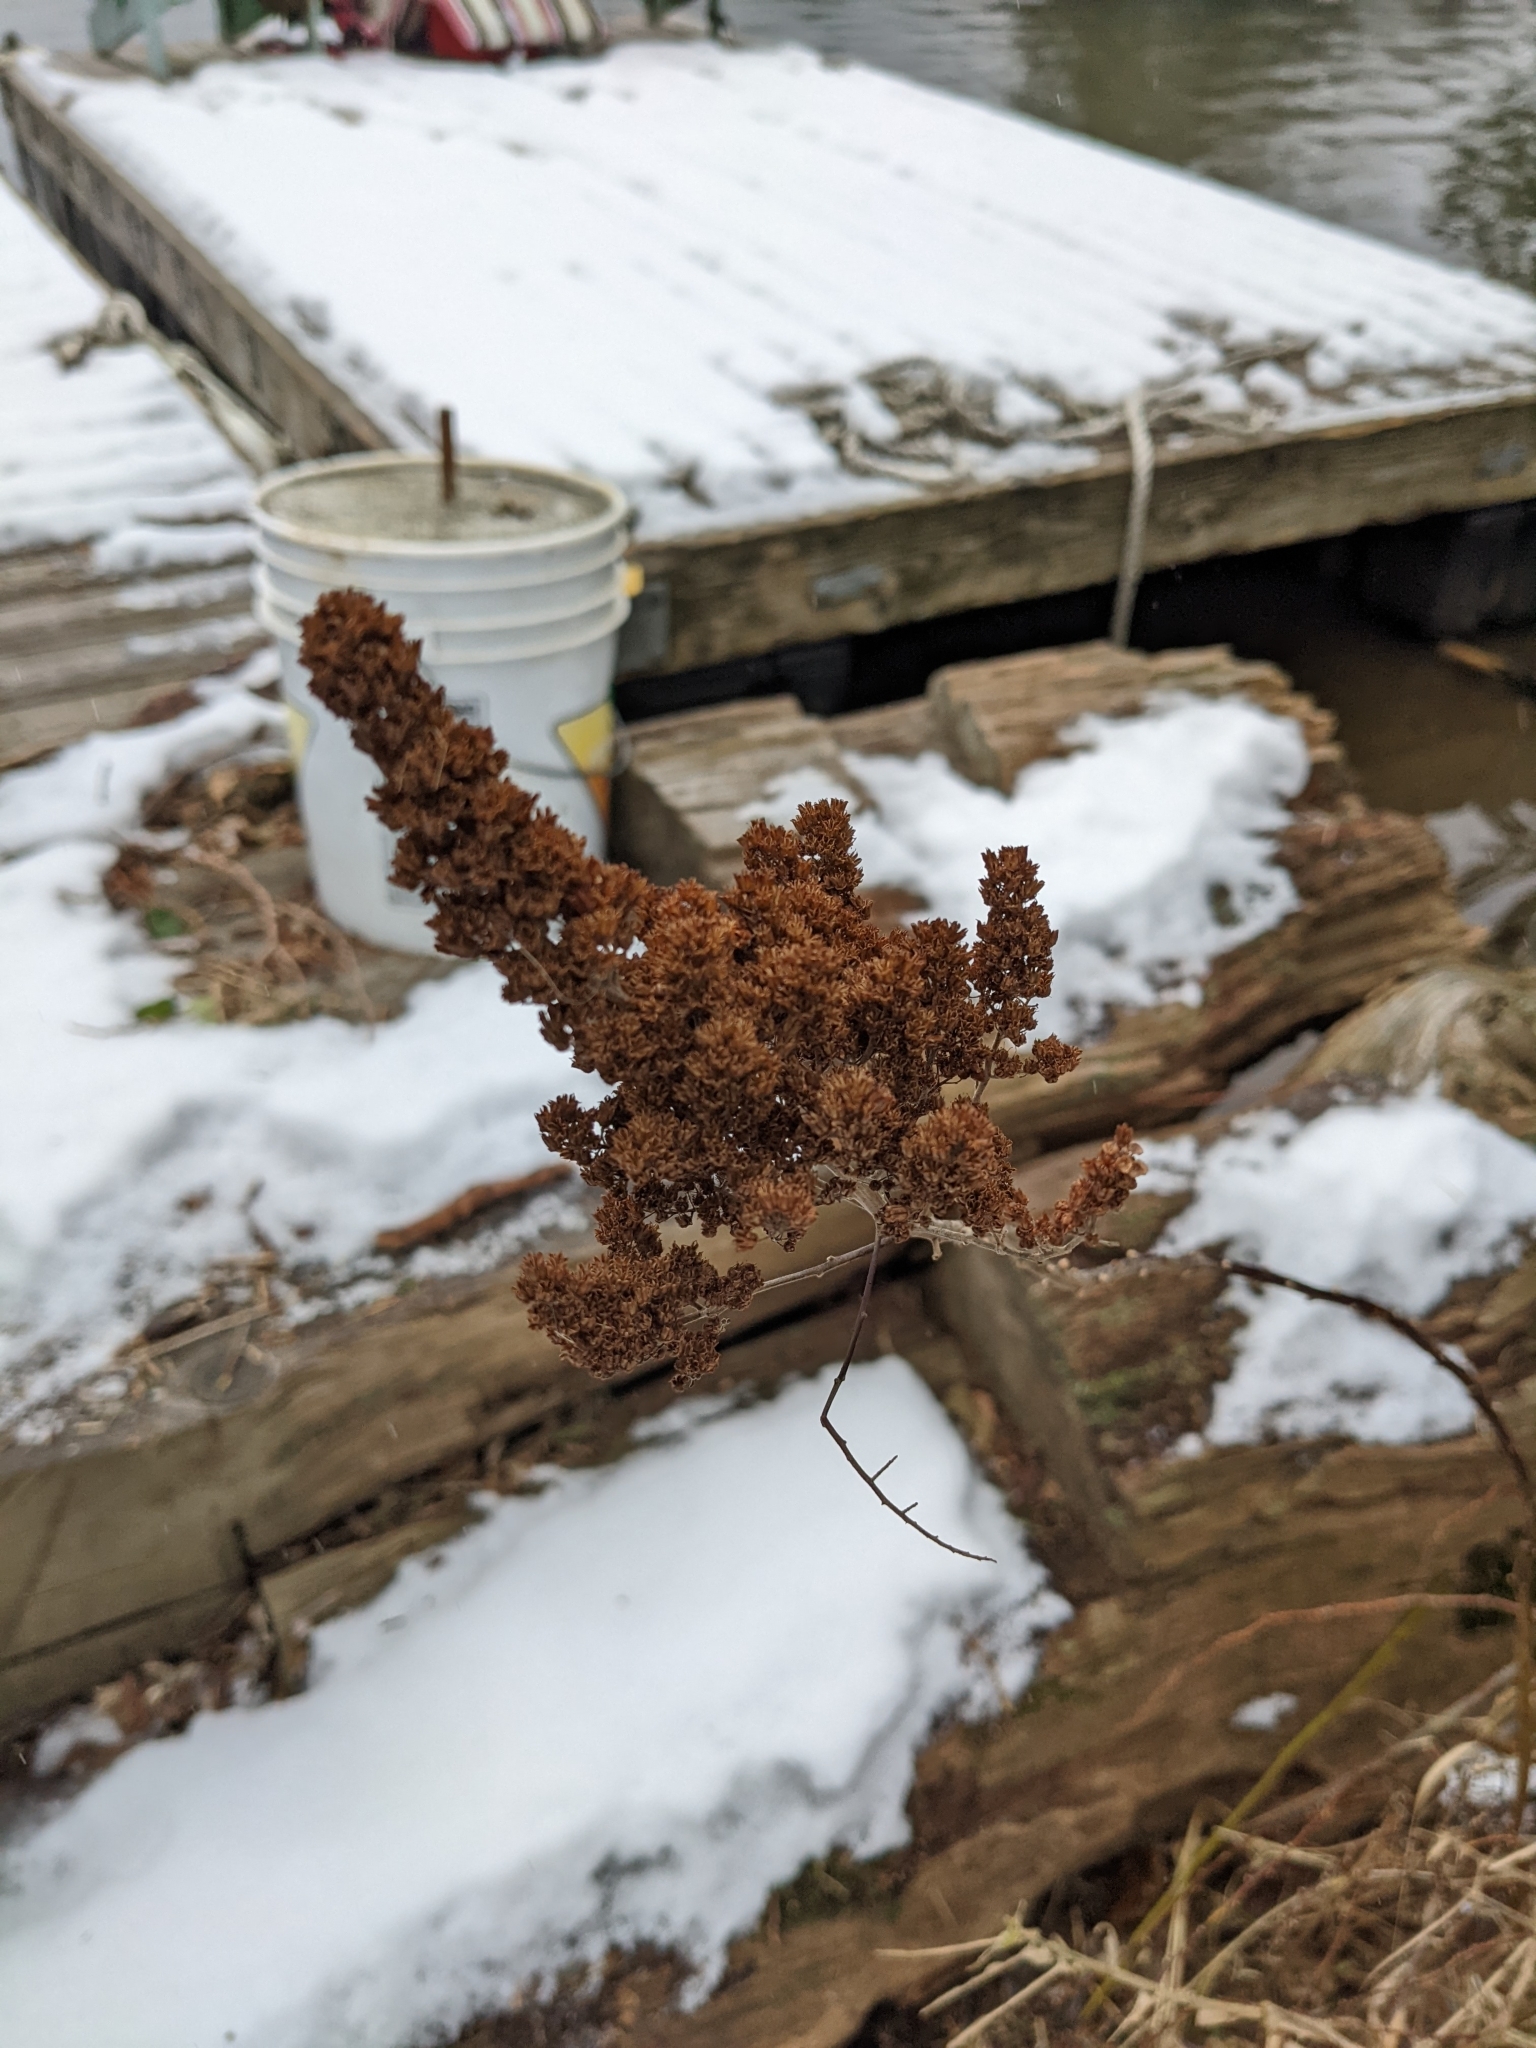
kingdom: Plantae
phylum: Tracheophyta
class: Magnoliopsida
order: Rosales
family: Rosaceae
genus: Spiraea
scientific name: Spiraea douglasii
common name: Steeplebush
